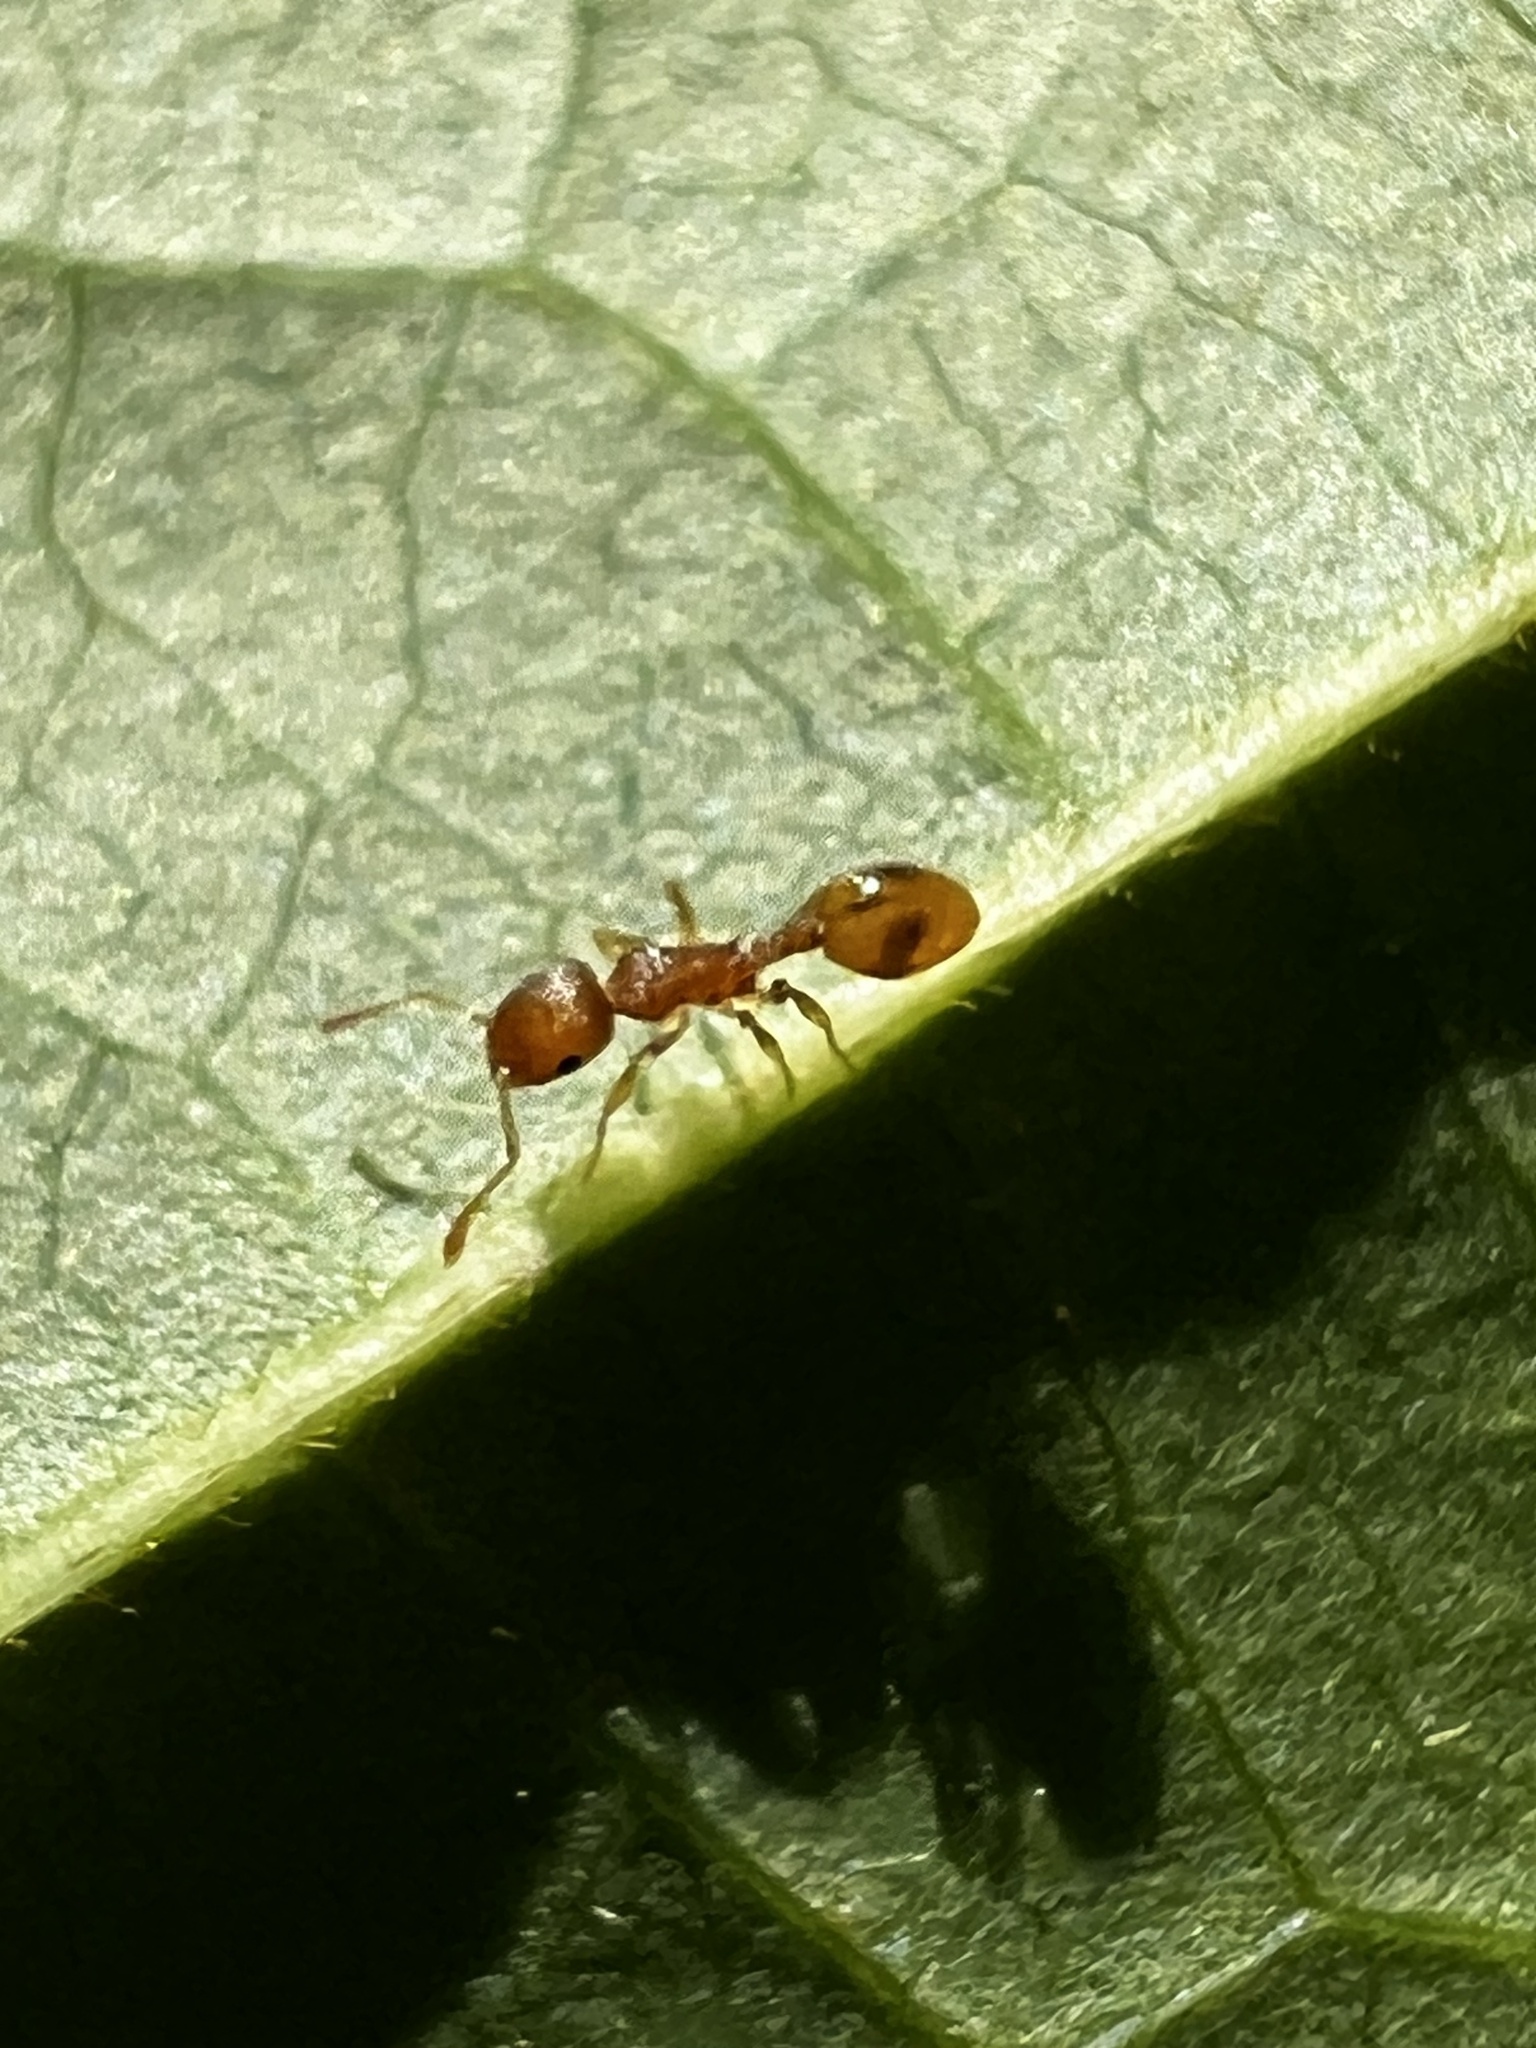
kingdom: Animalia
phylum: Arthropoda
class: Insecta
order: Hymenoptera
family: Formicidae
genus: Temnothorax
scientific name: Temnothorax curvispinosus
